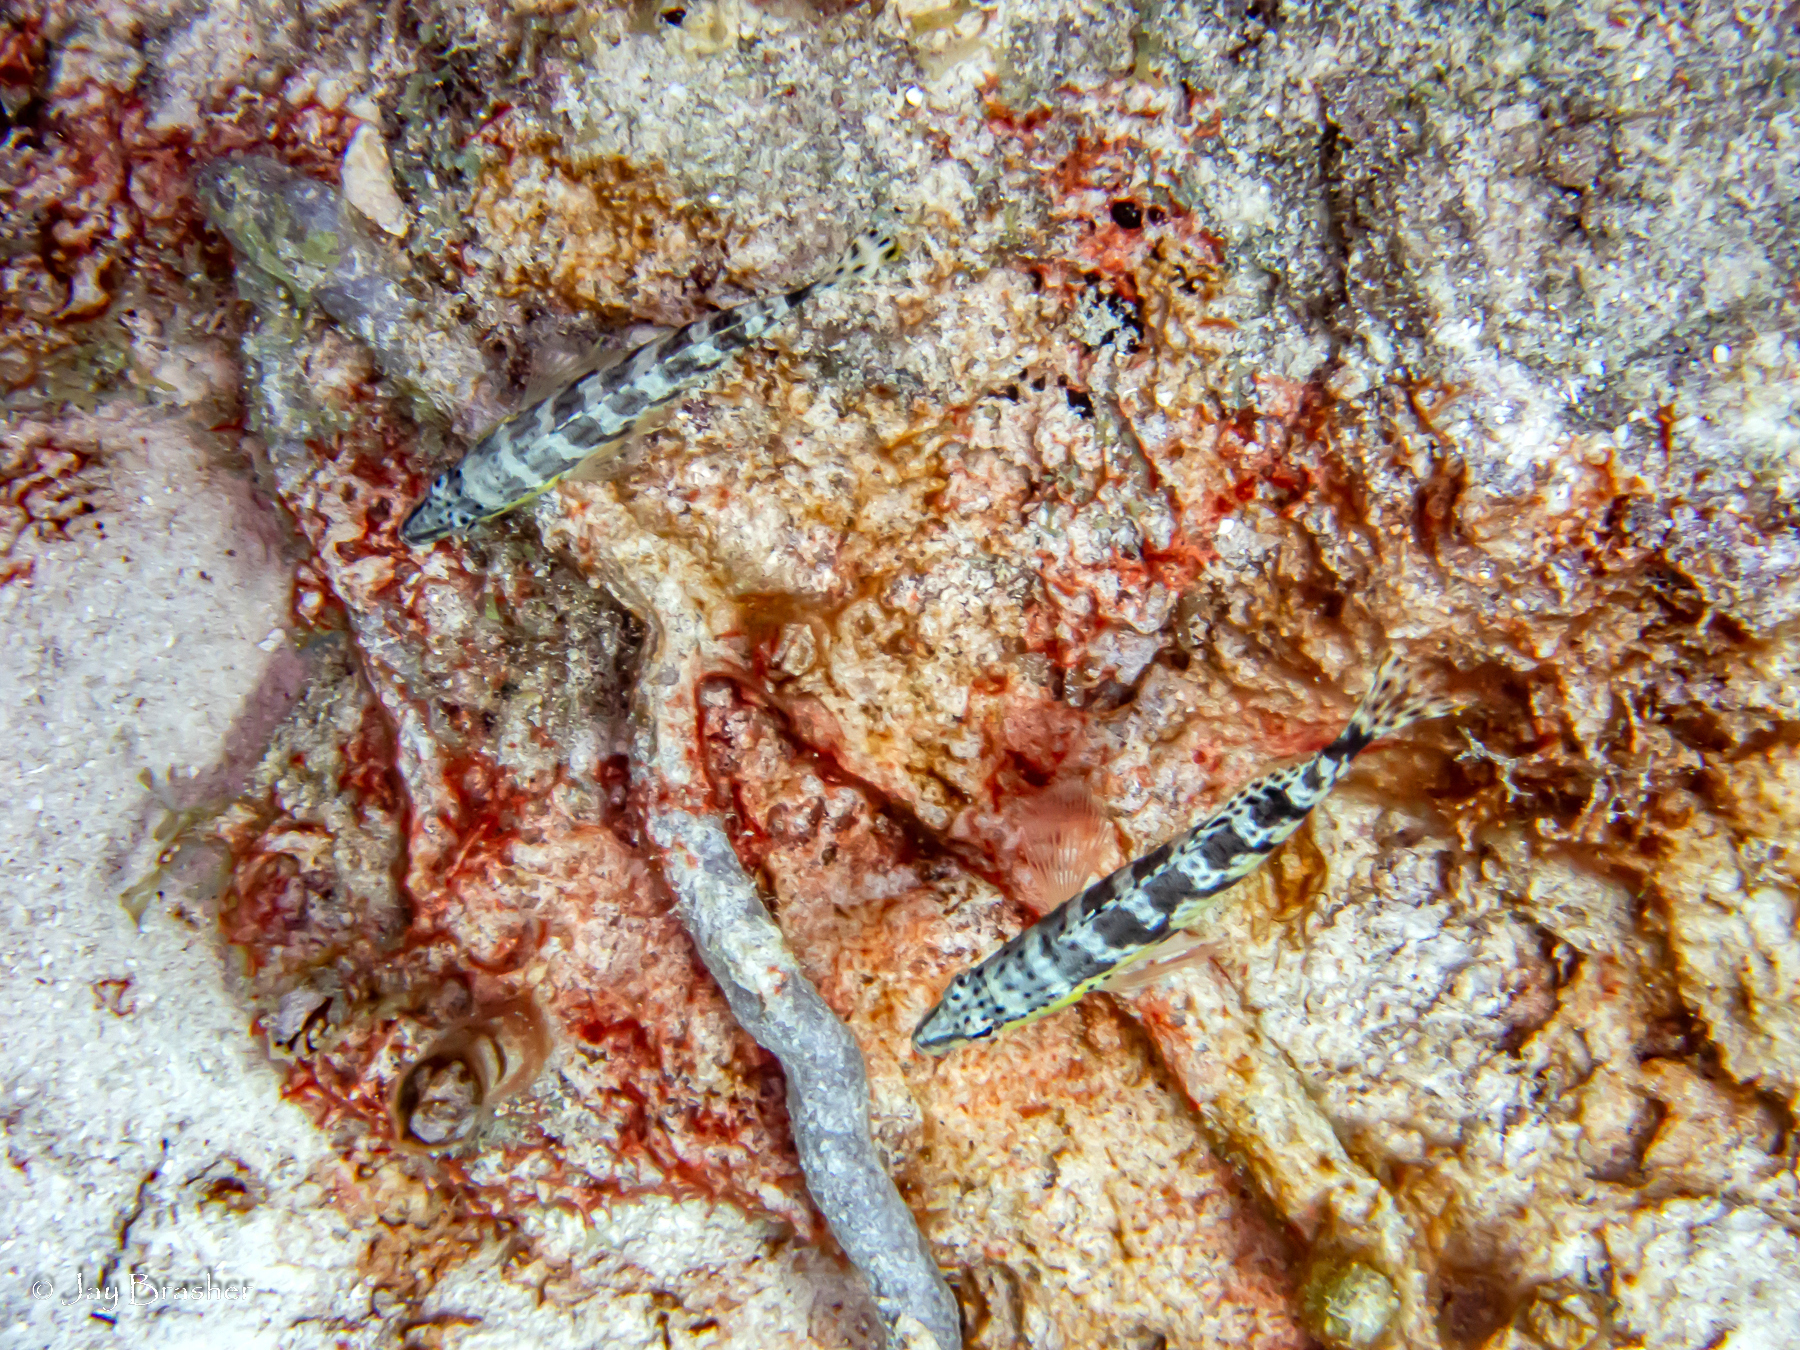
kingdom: Animalia
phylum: Chordata
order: Perciformes
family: Serranidae
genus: Serranus
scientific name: Serranus tigrinus
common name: Harlequin bass
